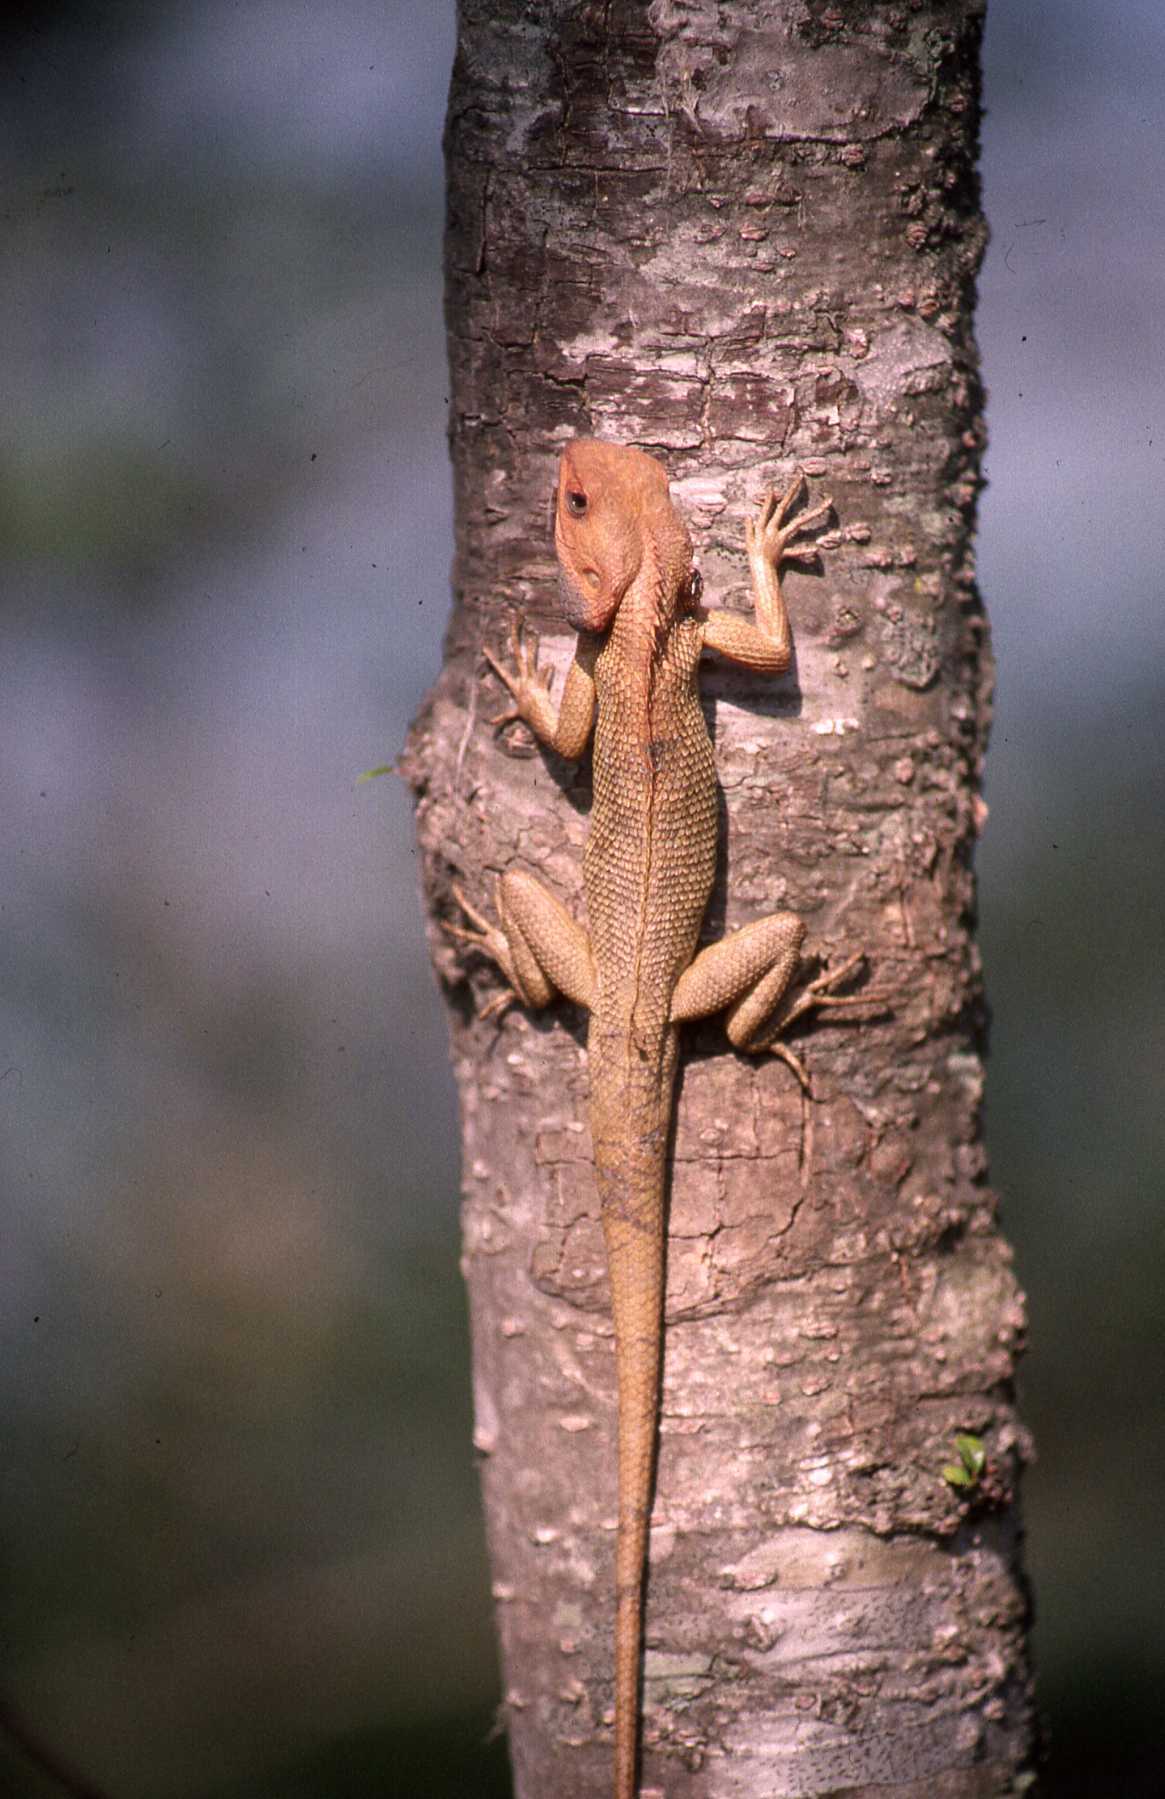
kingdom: Animalia
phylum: Chordata
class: Squamata
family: Agamidae
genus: Calotes
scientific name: Calotes versicolor
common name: Oriental garden lizard
